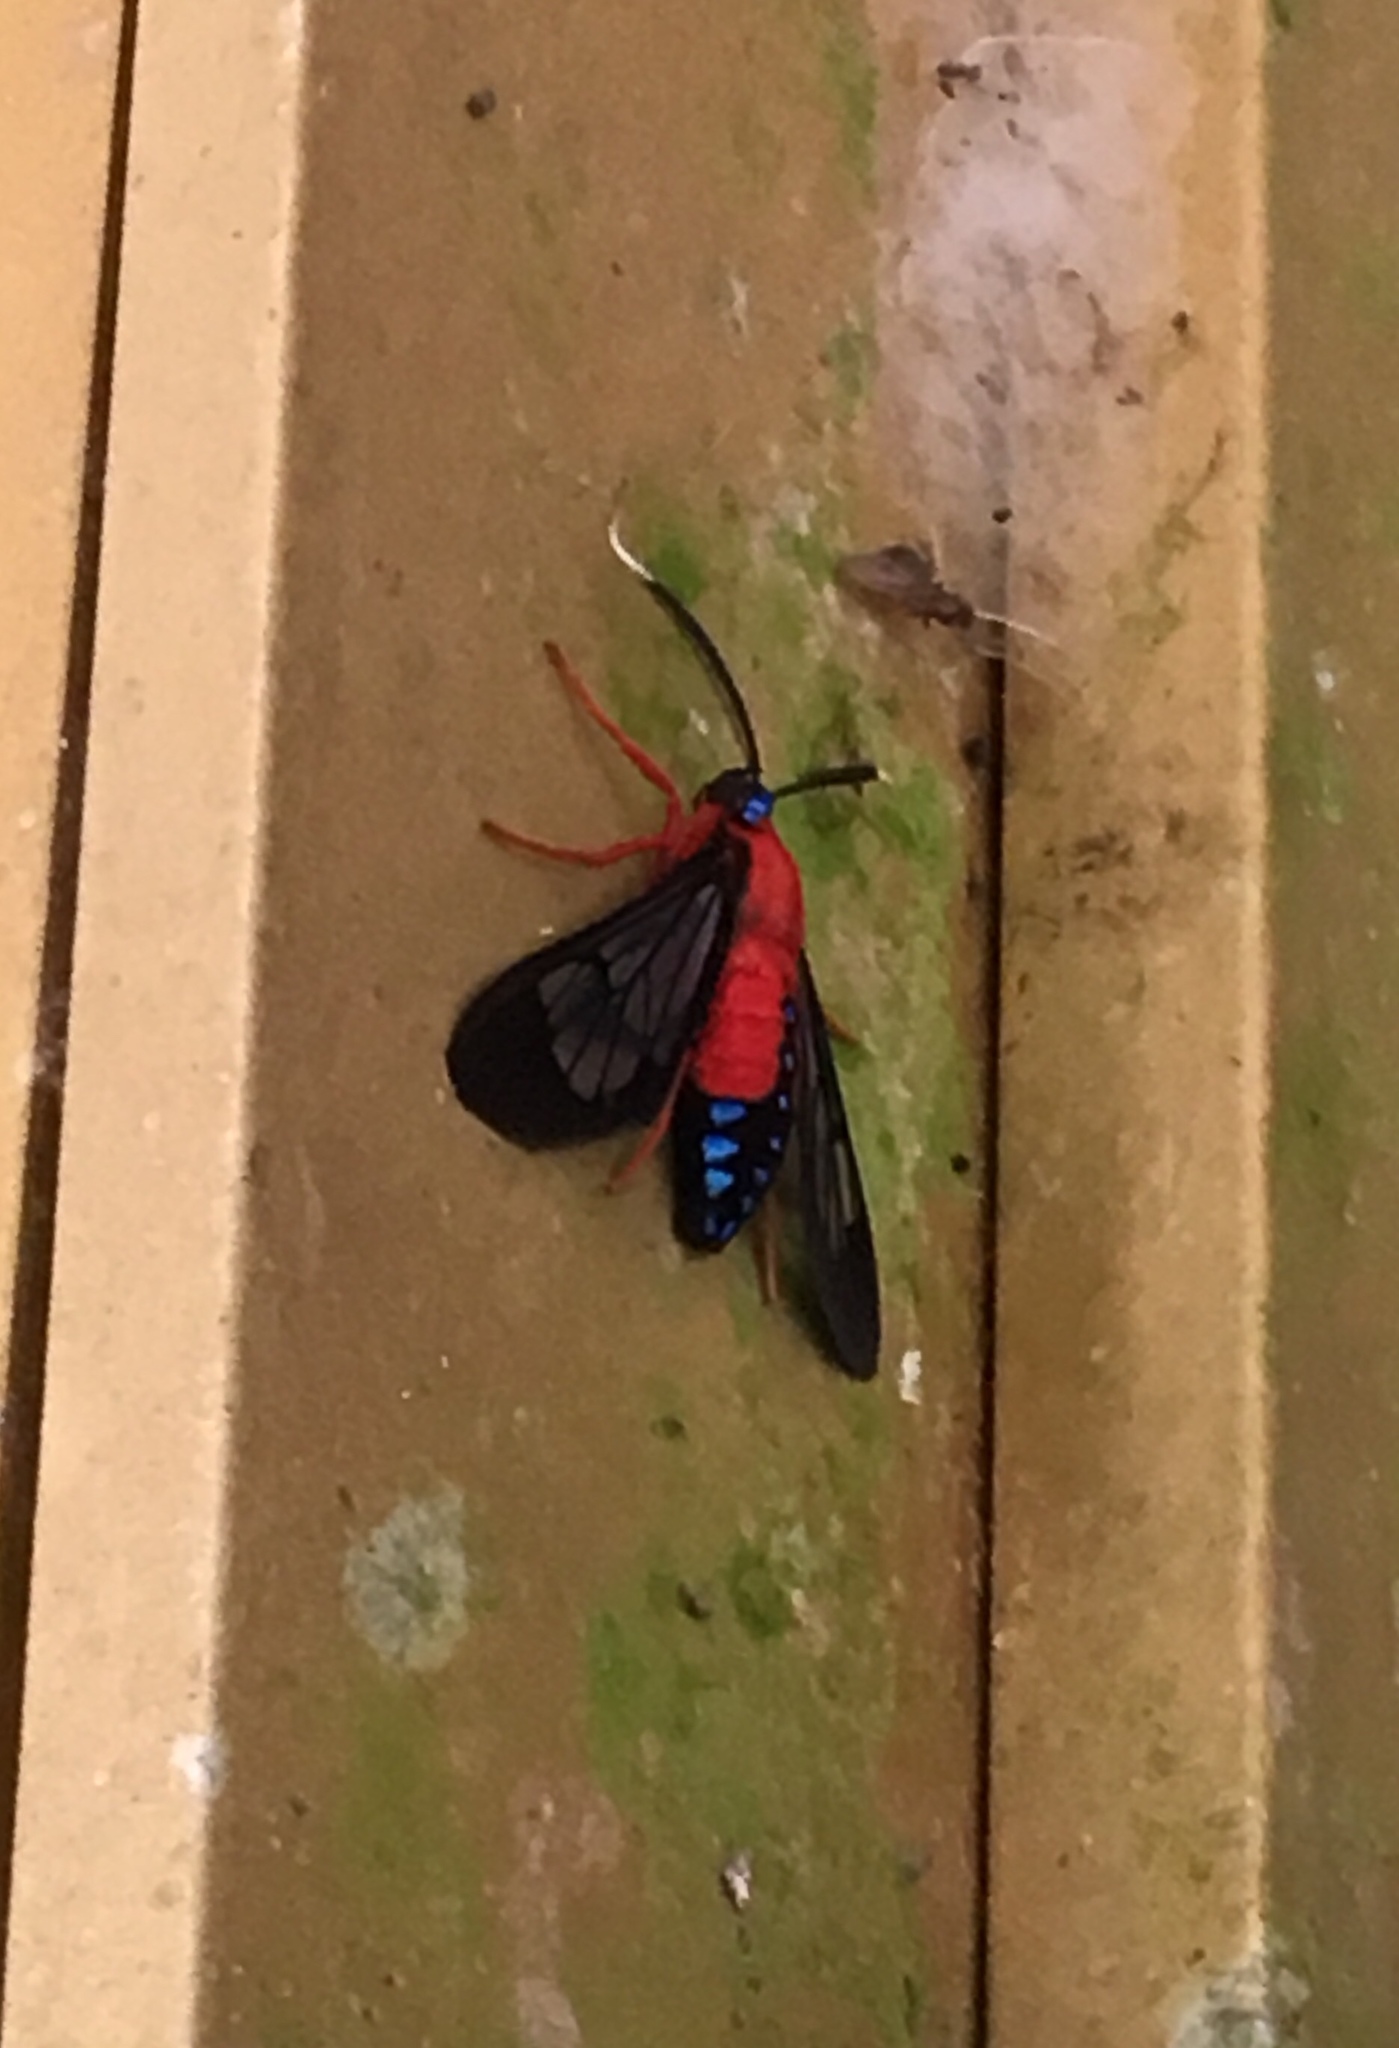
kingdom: Animalia
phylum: Arthropoda
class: Insecta
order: Lepidoptera
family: Erebidae
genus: Cosmosoma
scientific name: Cosmosoma myrodora
